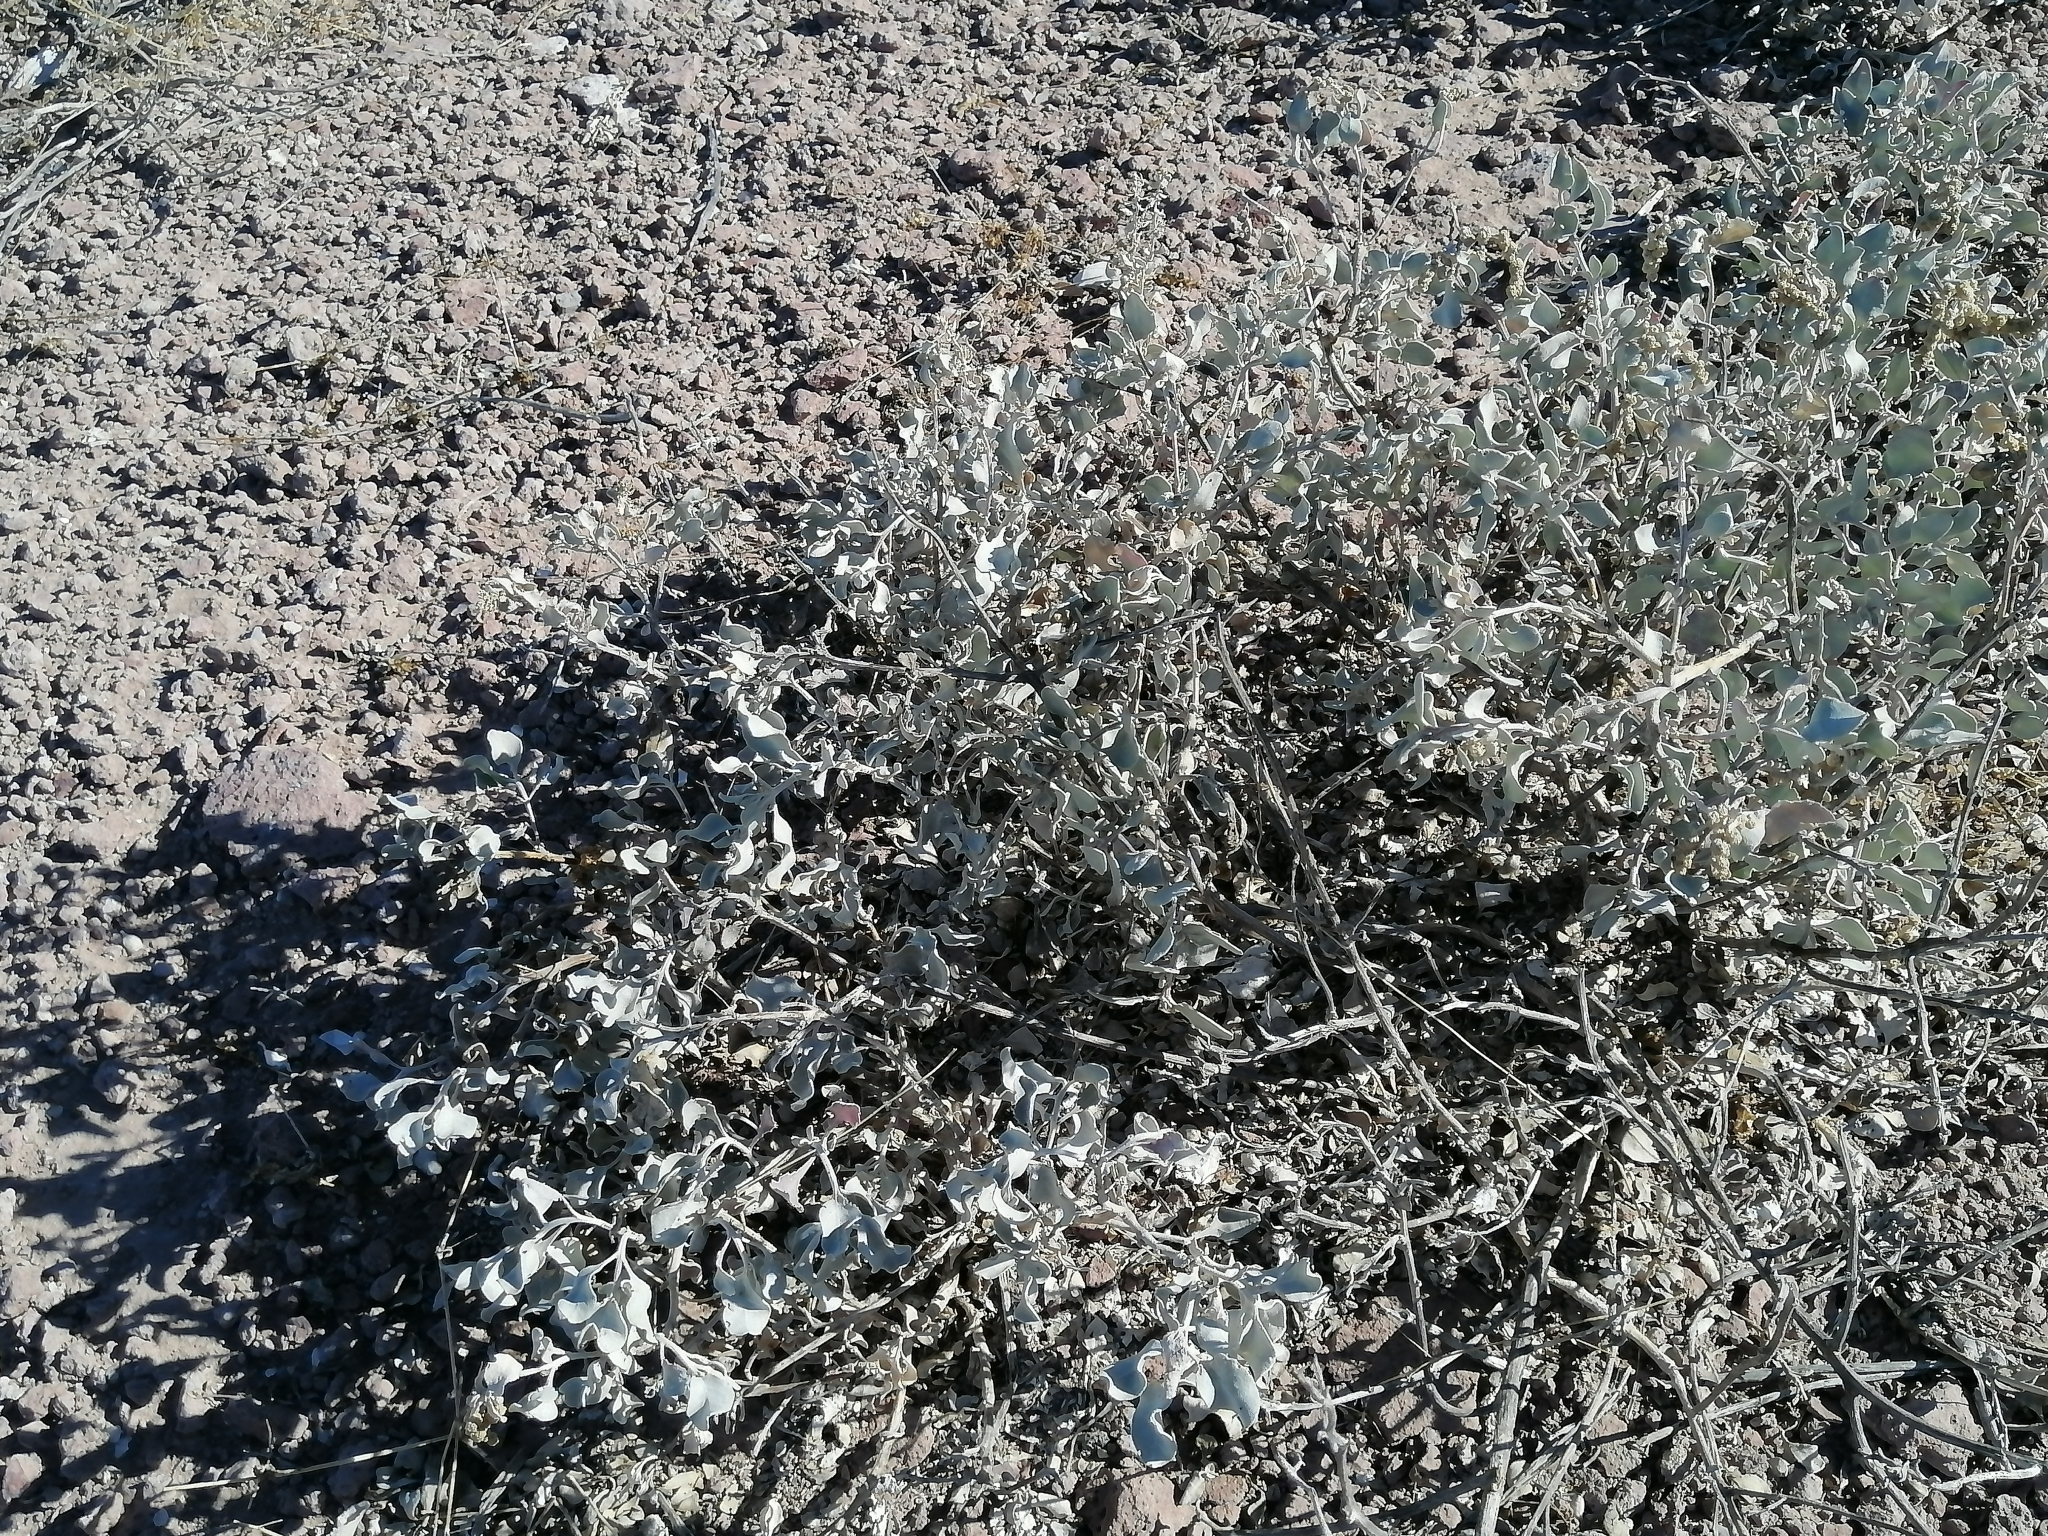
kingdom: Plantae
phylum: Tracheophyta
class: Magnoliopsida
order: Caryophyllales
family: Amaranthaceae
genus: Atriplex
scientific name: Atriplex barclayana
